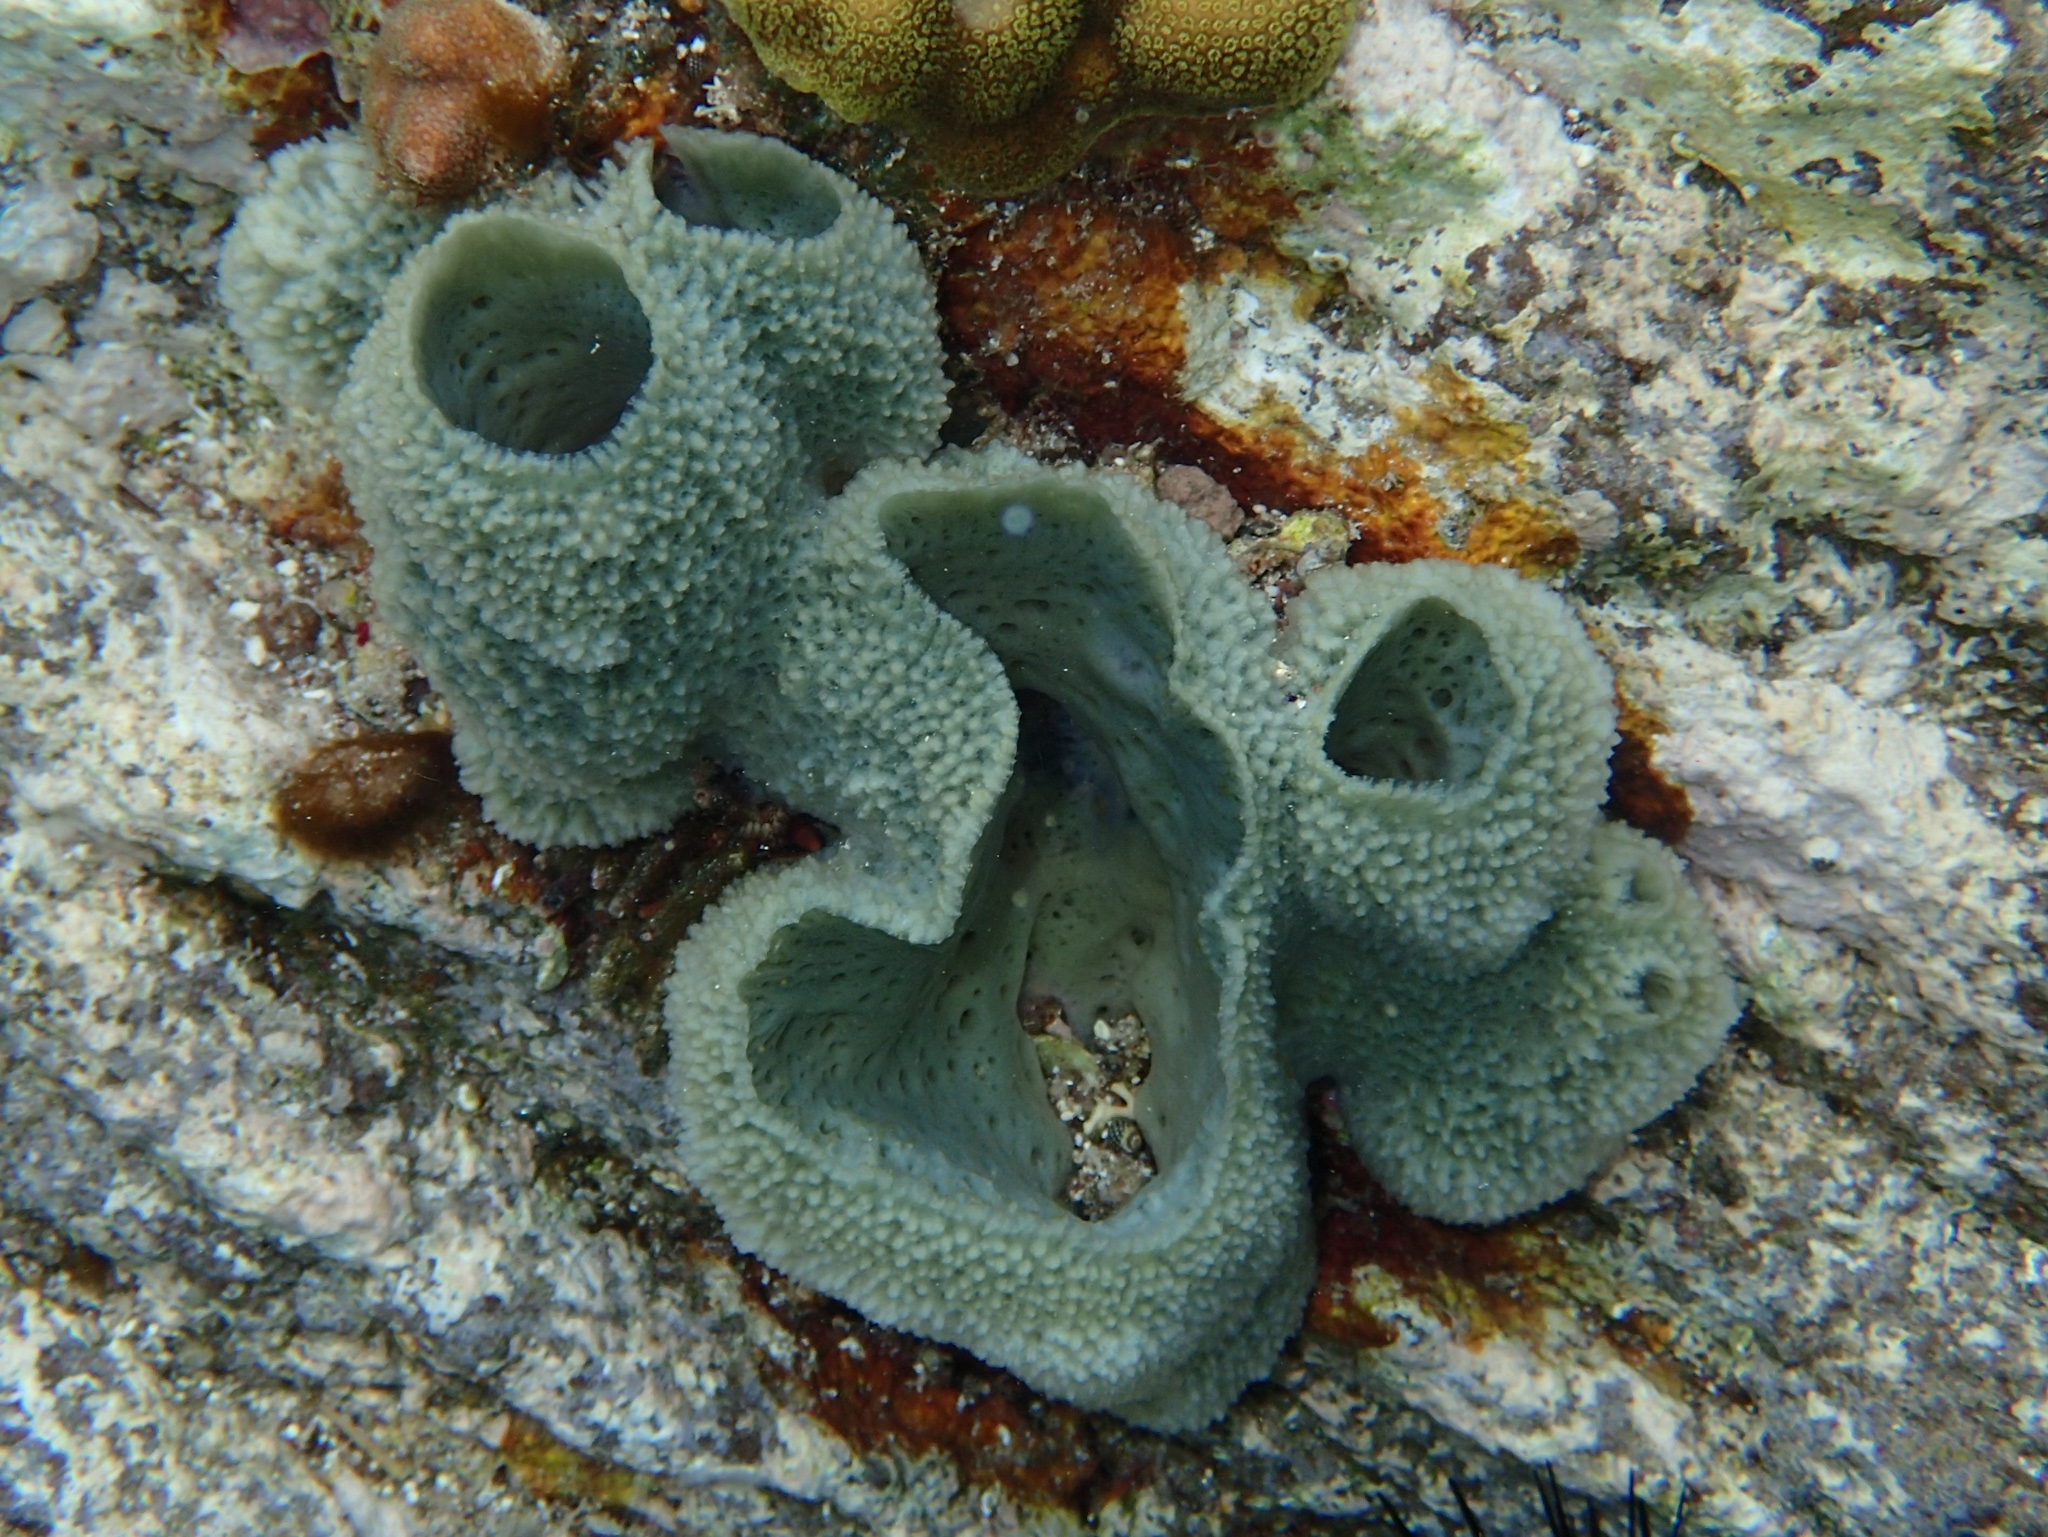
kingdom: Animalia
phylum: Porifera
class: Demospongiae
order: Haplosclerida
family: Niphatidae
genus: Niphates
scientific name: Niphates digitalis
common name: Pink vase sponge
